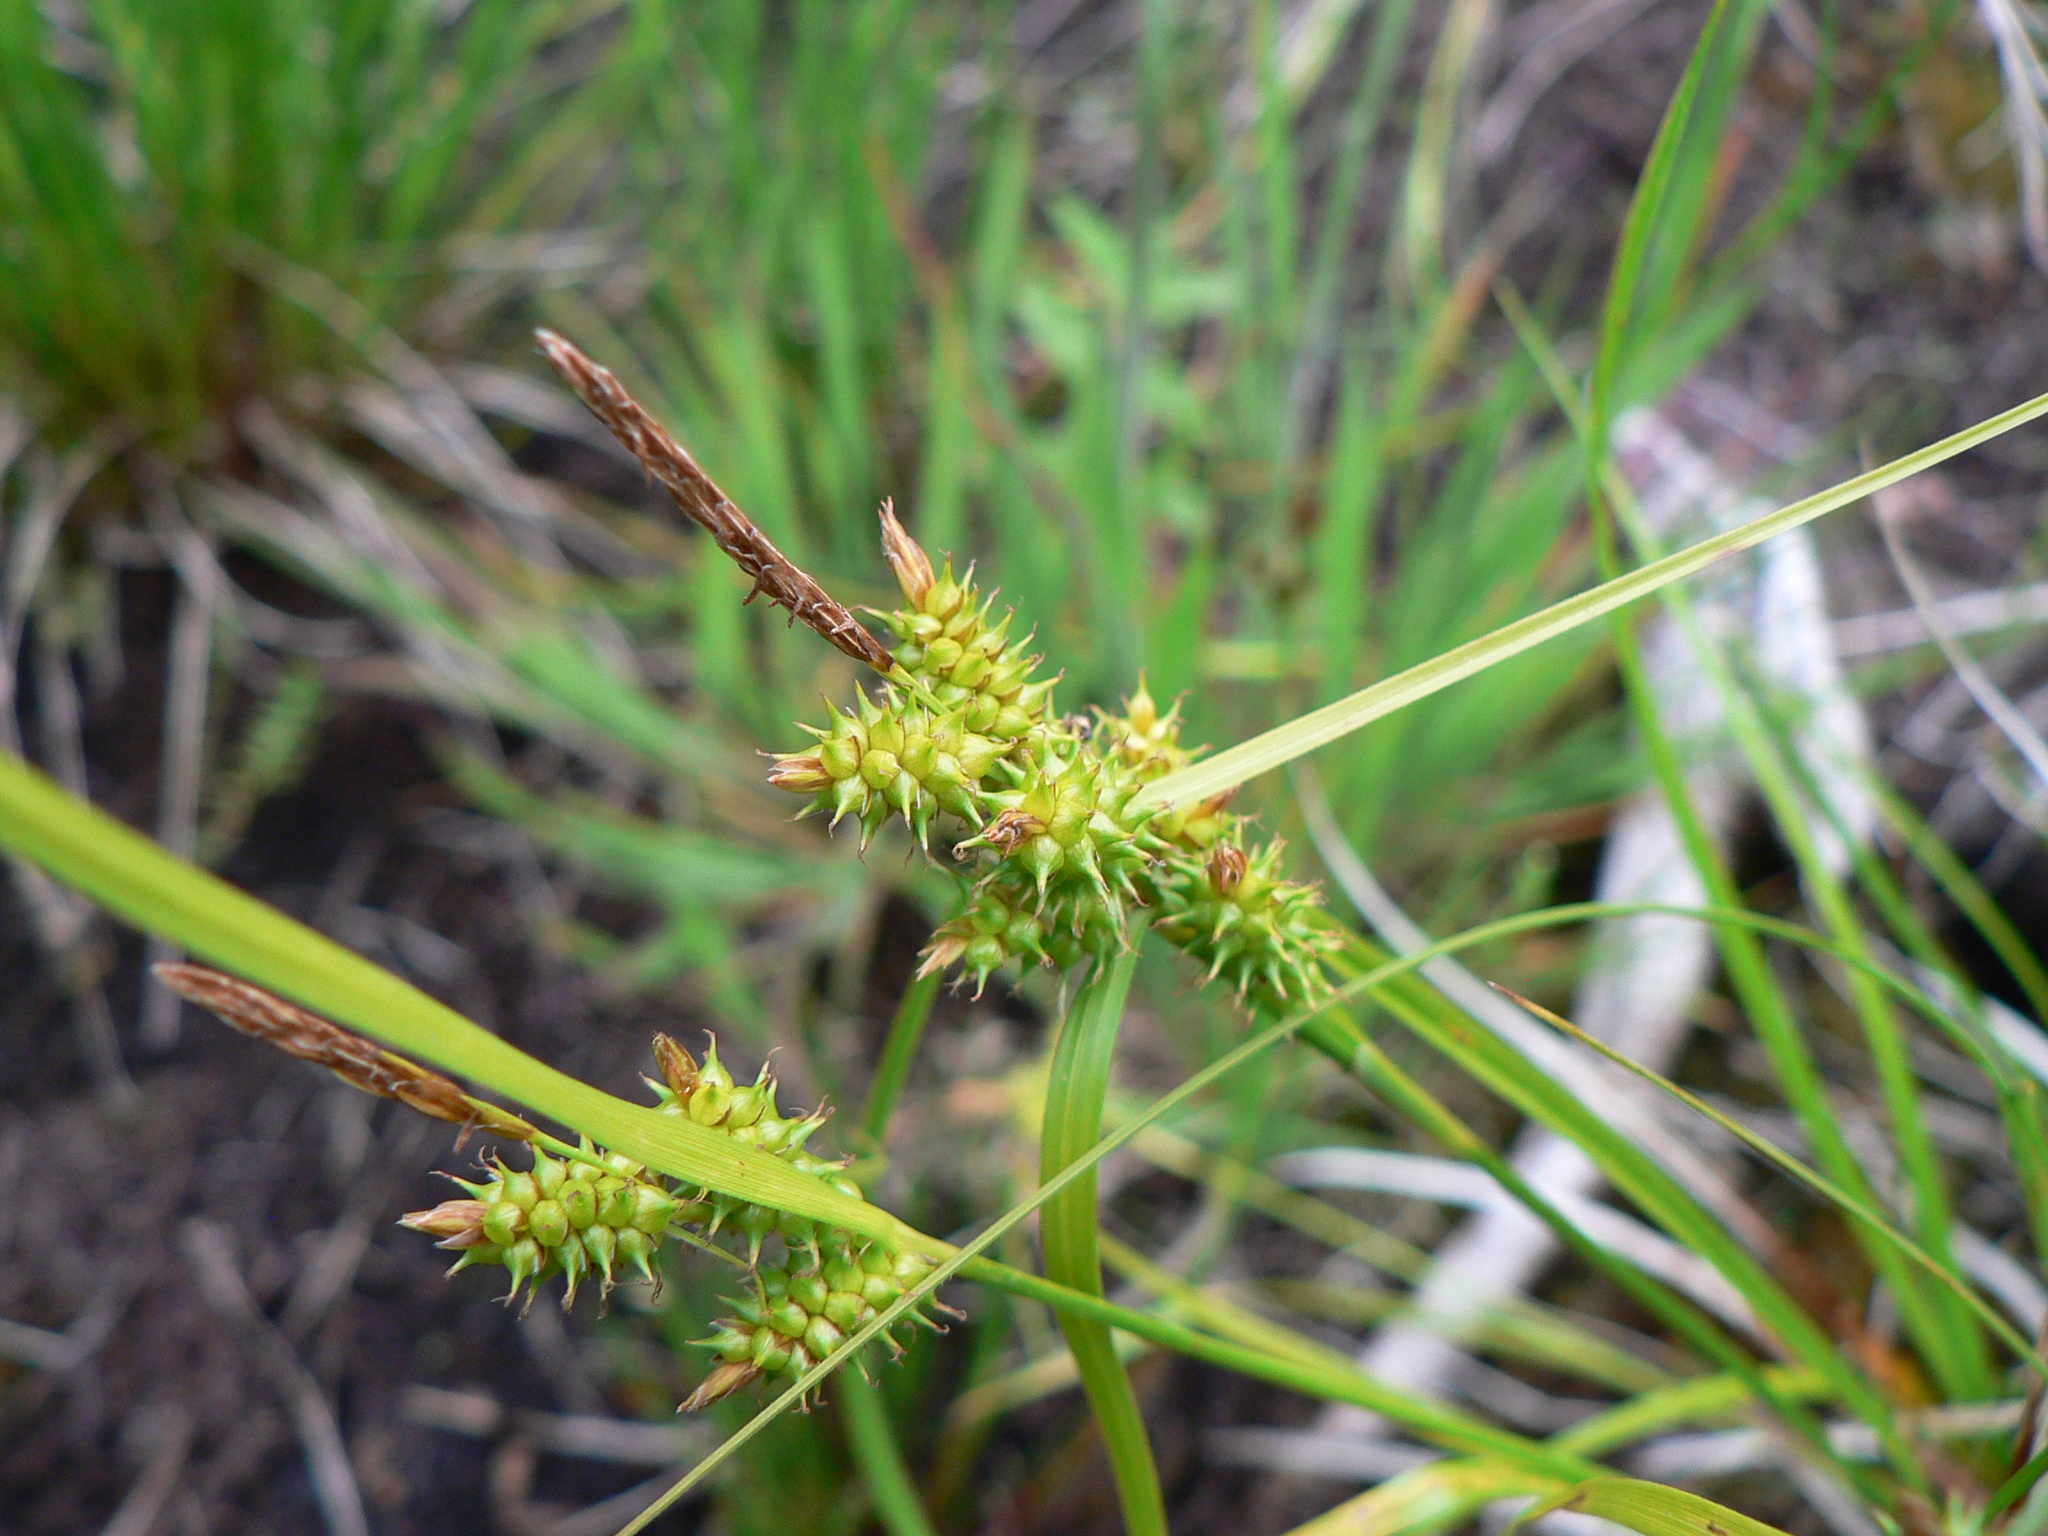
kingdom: Plantae
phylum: Tracheophyta
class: Liliopsida
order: Poales
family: Cyperaceae
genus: Carex
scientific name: Carex
